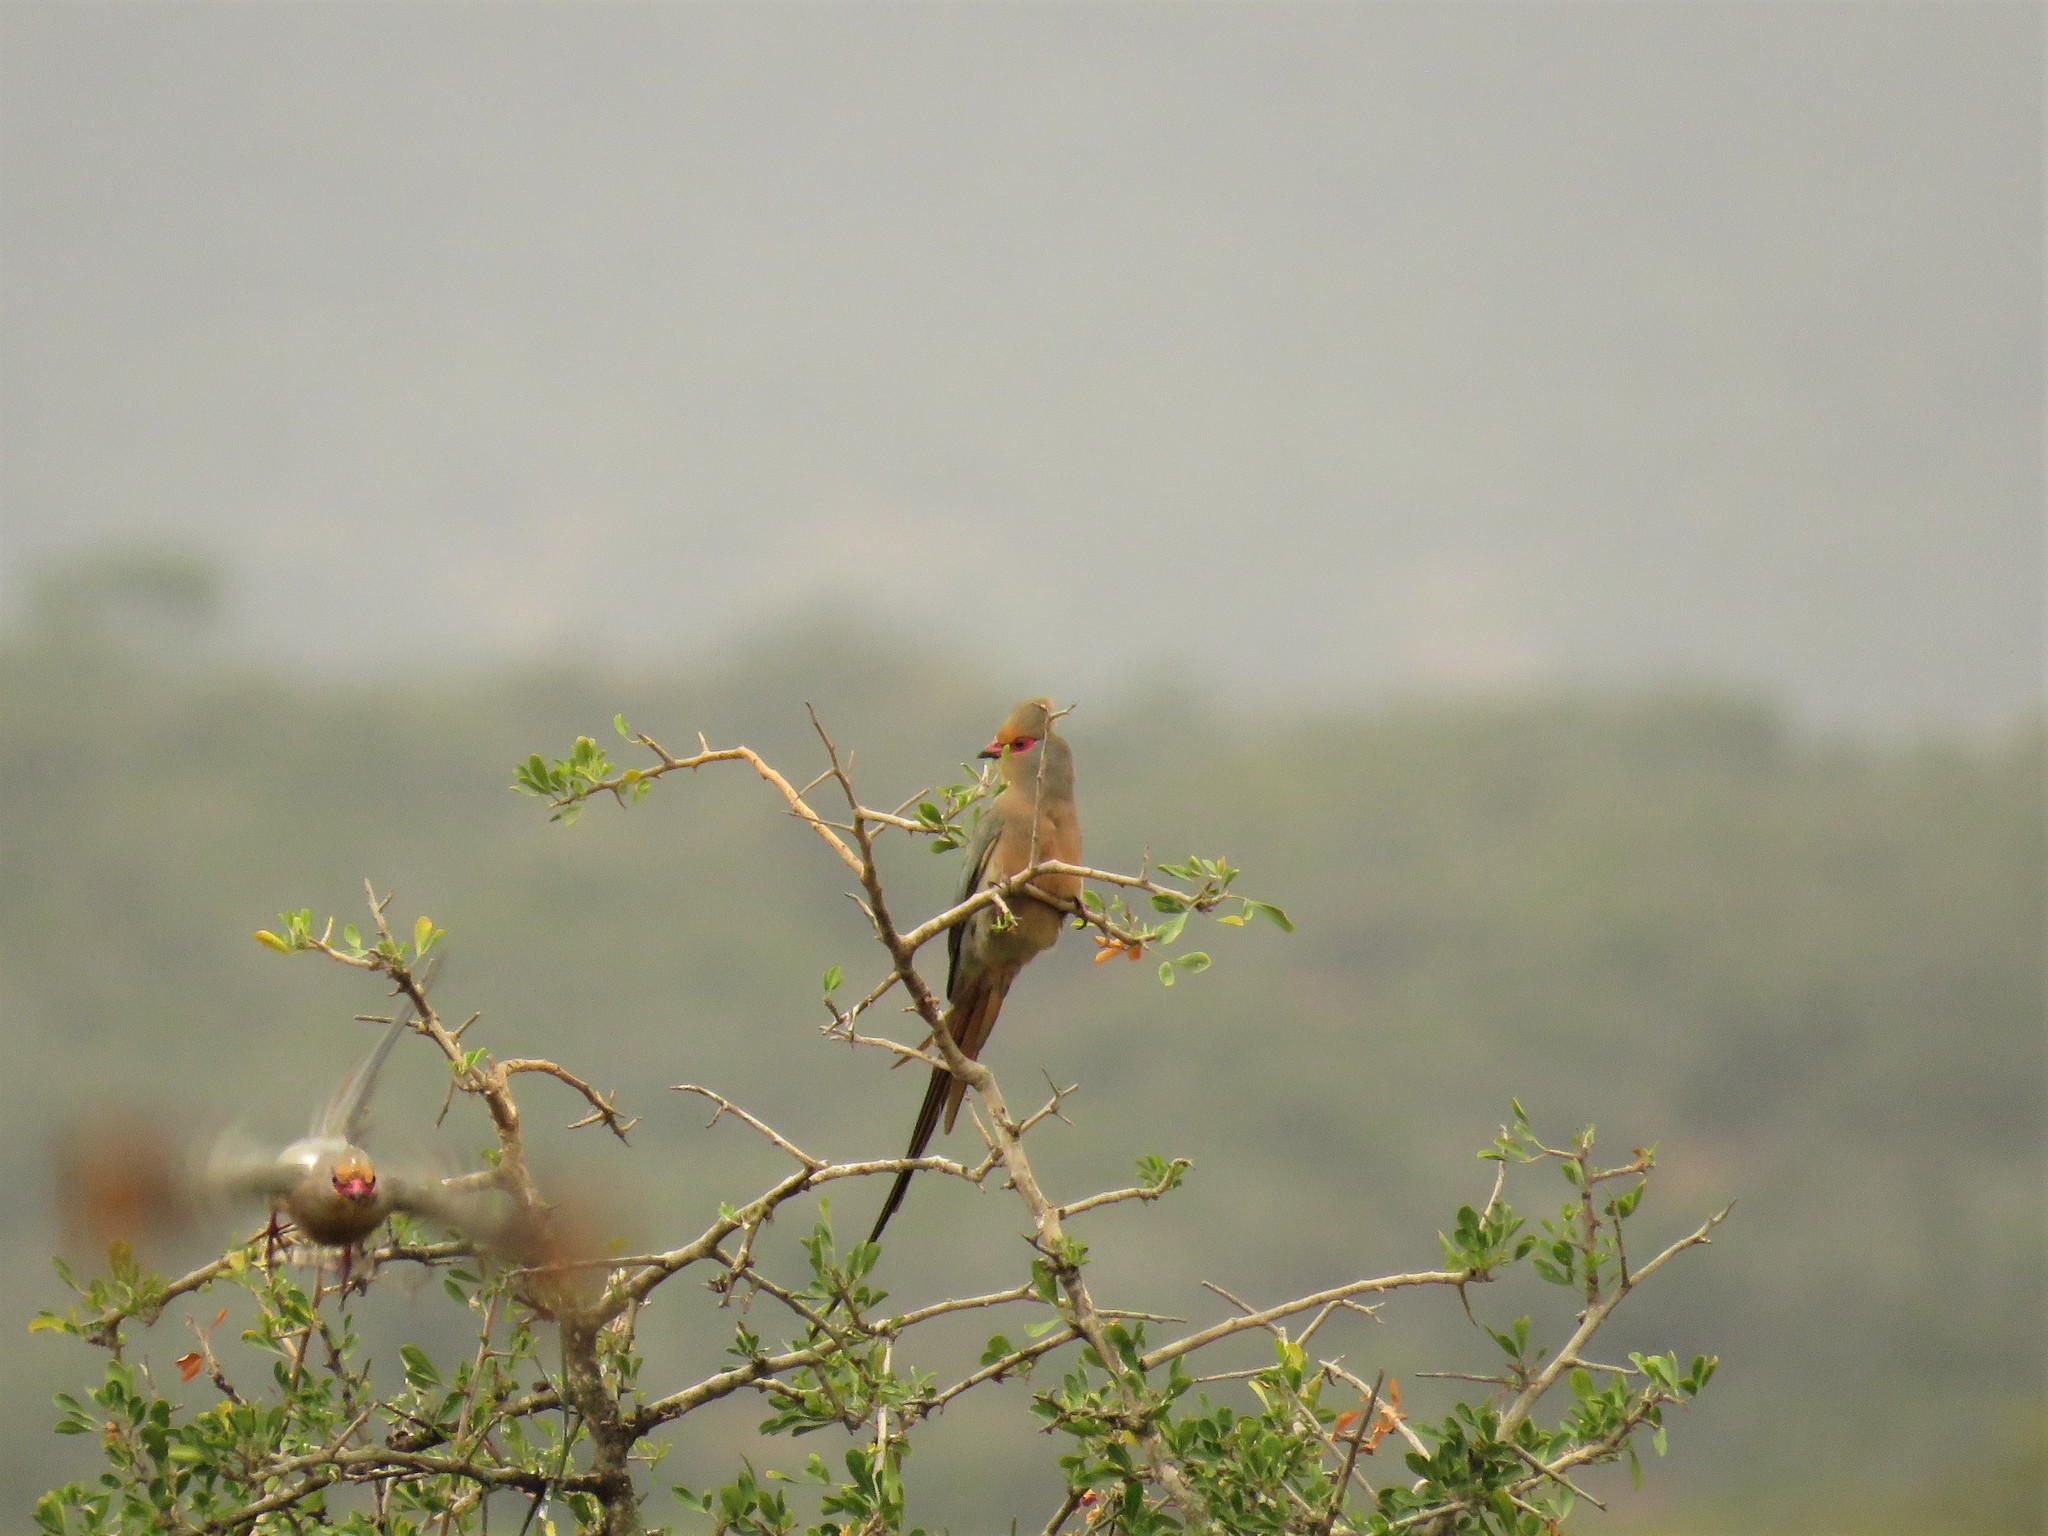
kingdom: Animalia
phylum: Chordata
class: Aves
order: Coliiformes
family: Coliidae
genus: Urocolius
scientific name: Urocolius indicus
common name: Red-faced mousebird
